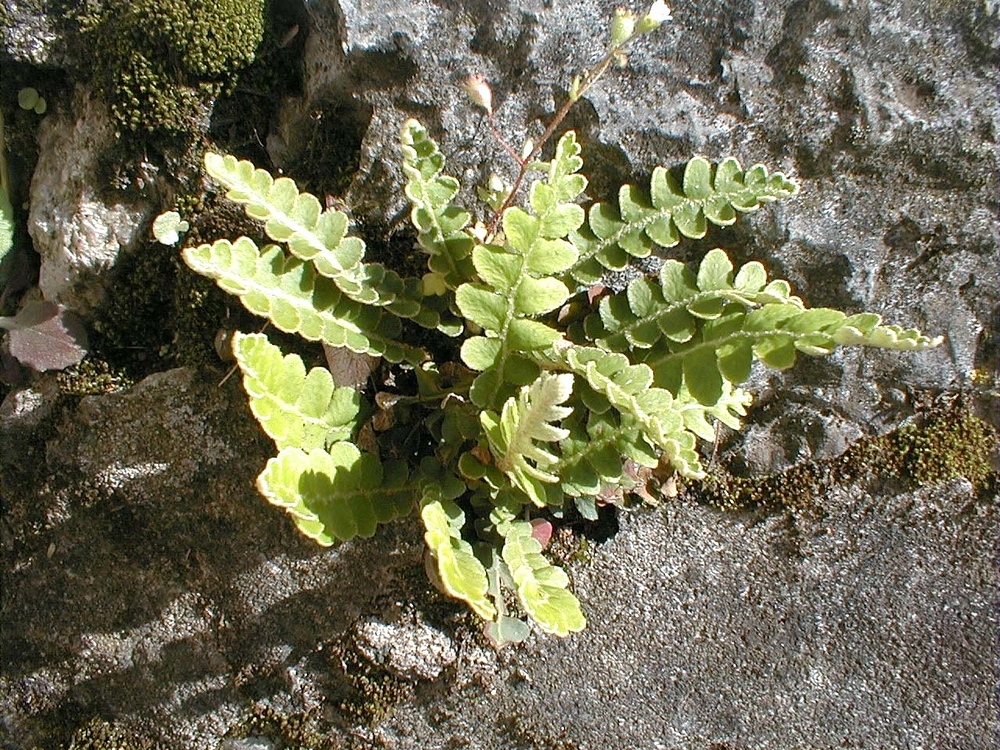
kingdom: Plantae
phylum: Tracheophyta
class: Polypodiopsida
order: Polypodiales
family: Aspleniaceae
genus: Asplenium
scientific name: Asplenium ceterach
